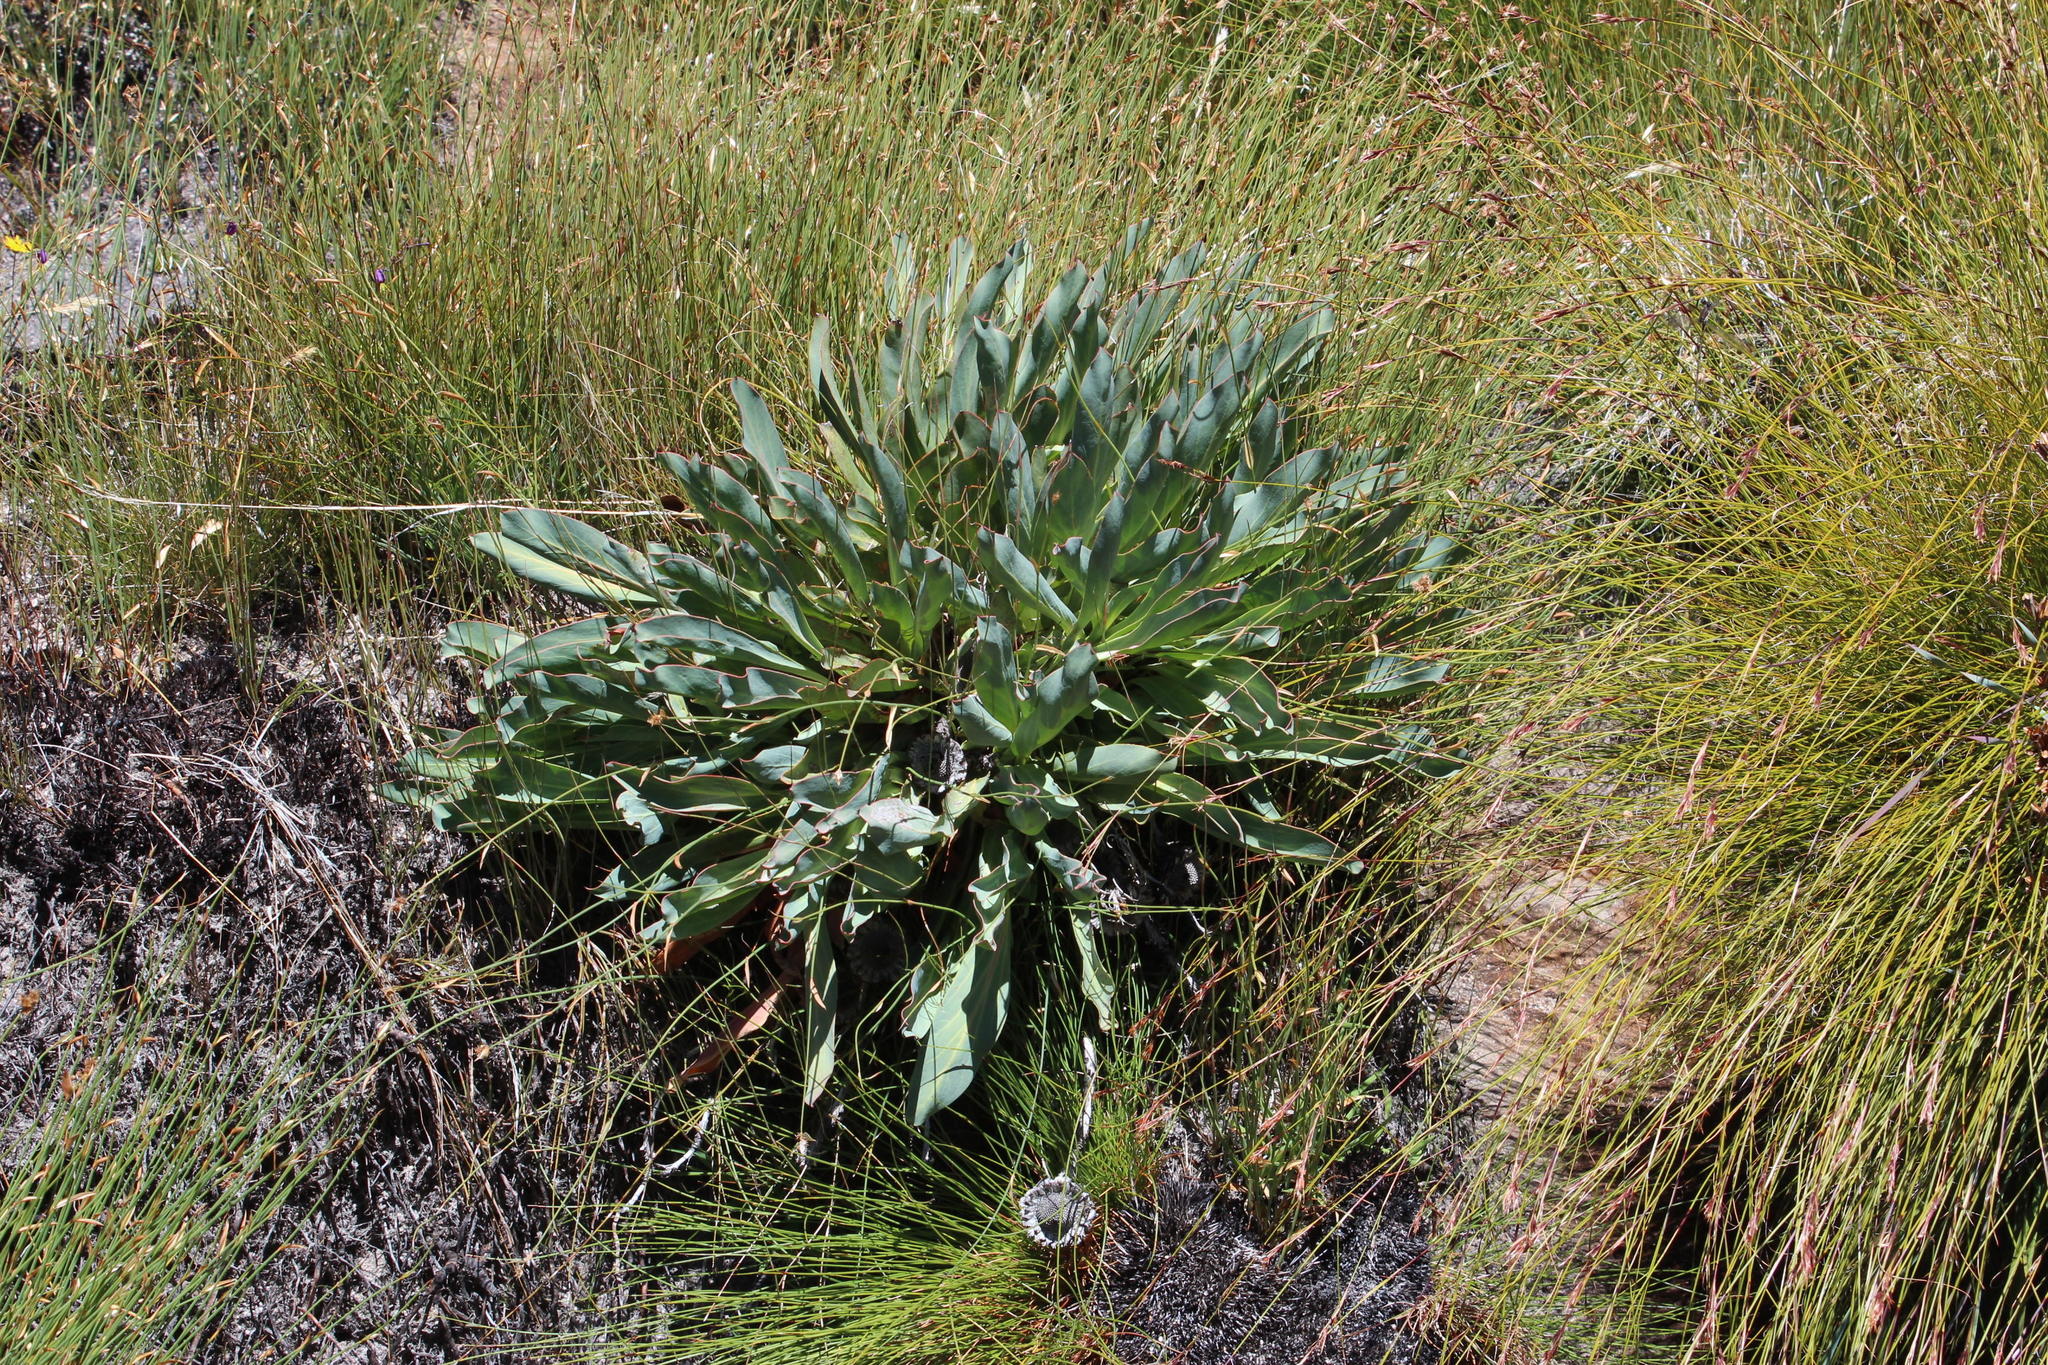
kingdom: Plantae
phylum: Tracheophyta
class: Magnoliopsida
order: Proteales
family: Proteaceae
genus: Protea
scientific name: Protea laevis
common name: Smooth-leaf sugarbush
